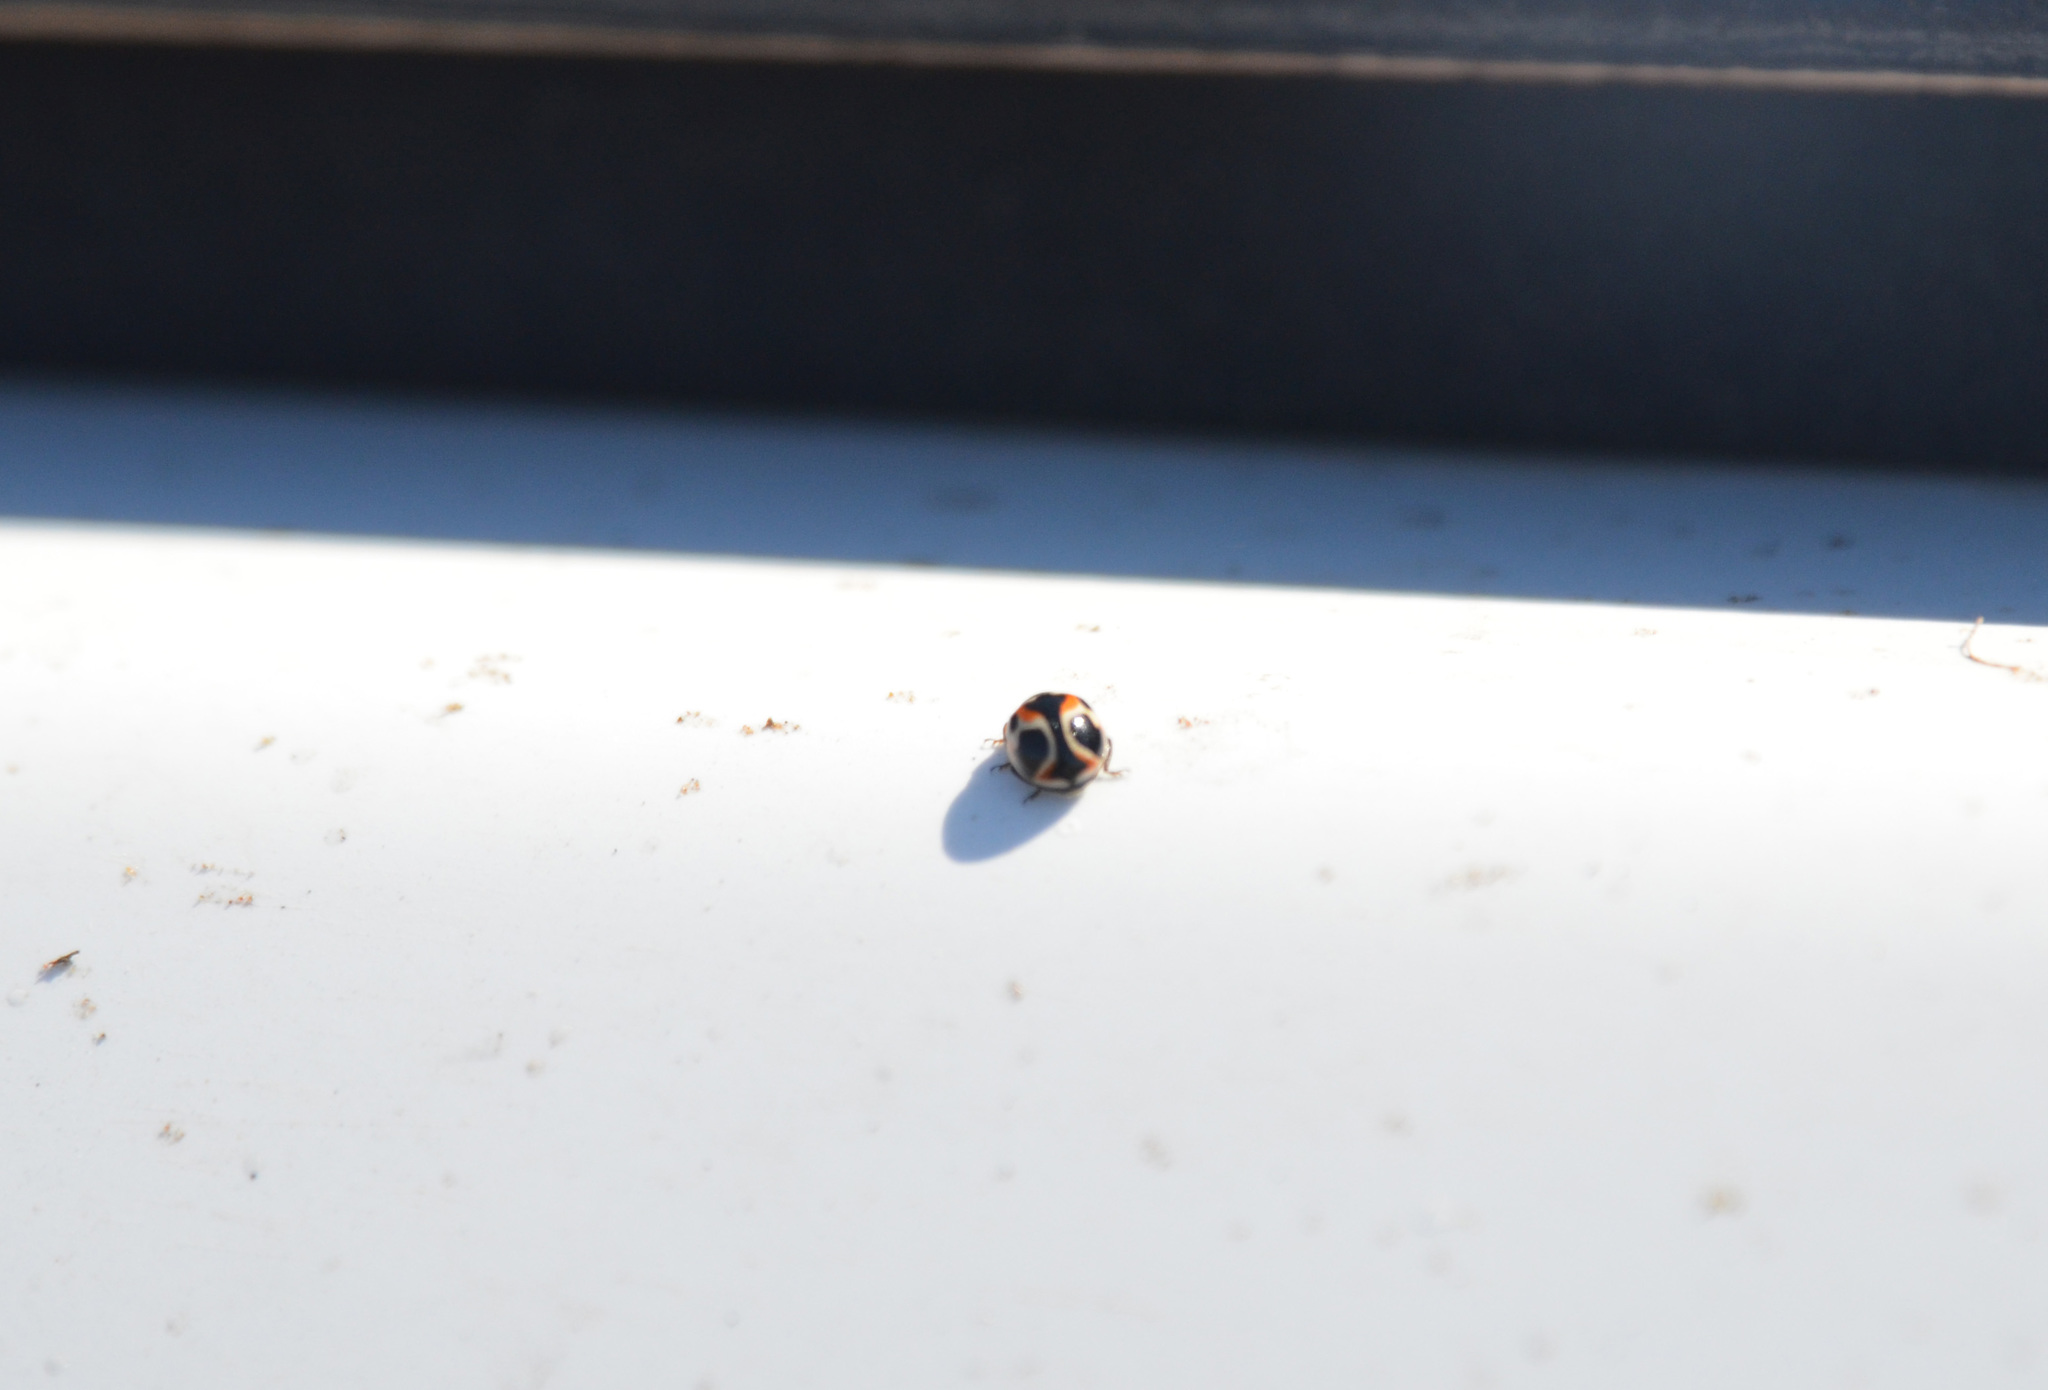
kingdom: Animalia
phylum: Arthropoda
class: Insecta
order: Coleoptera
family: Coccinellidae
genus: Cycloneda
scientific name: Cycloneda ancoralis
